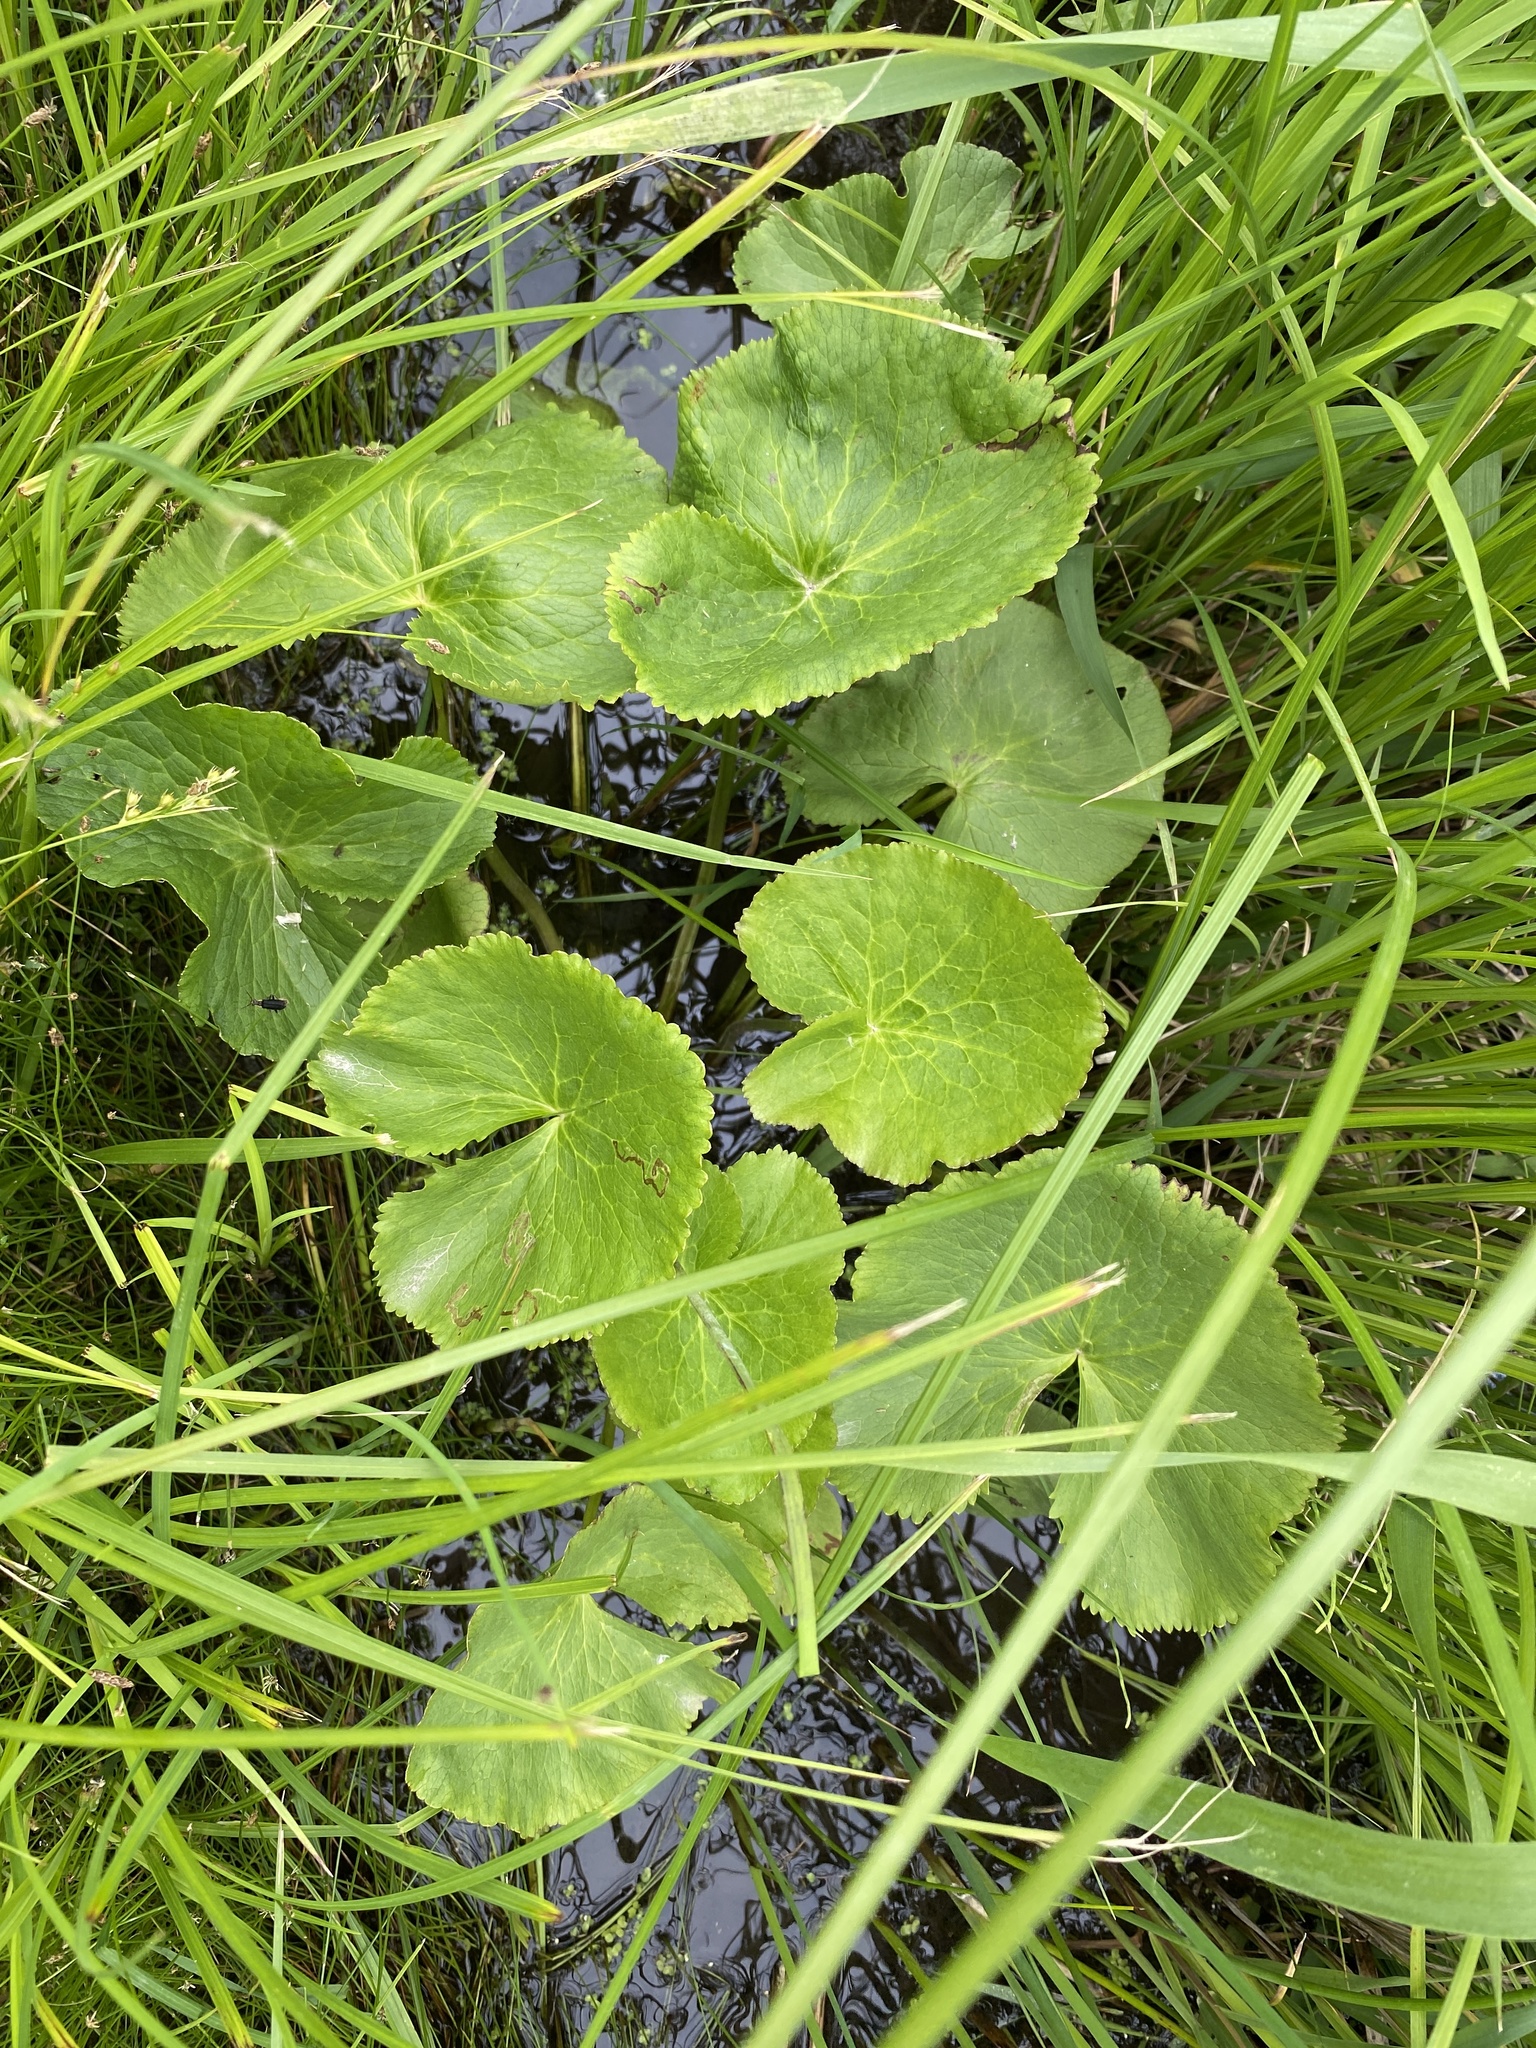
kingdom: Plantae
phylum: Tracheophyta
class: Magnoliopsida
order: Ranunculales
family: Ranunculaceae
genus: Caltha
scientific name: Caltha palustris
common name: Marsh marigold
